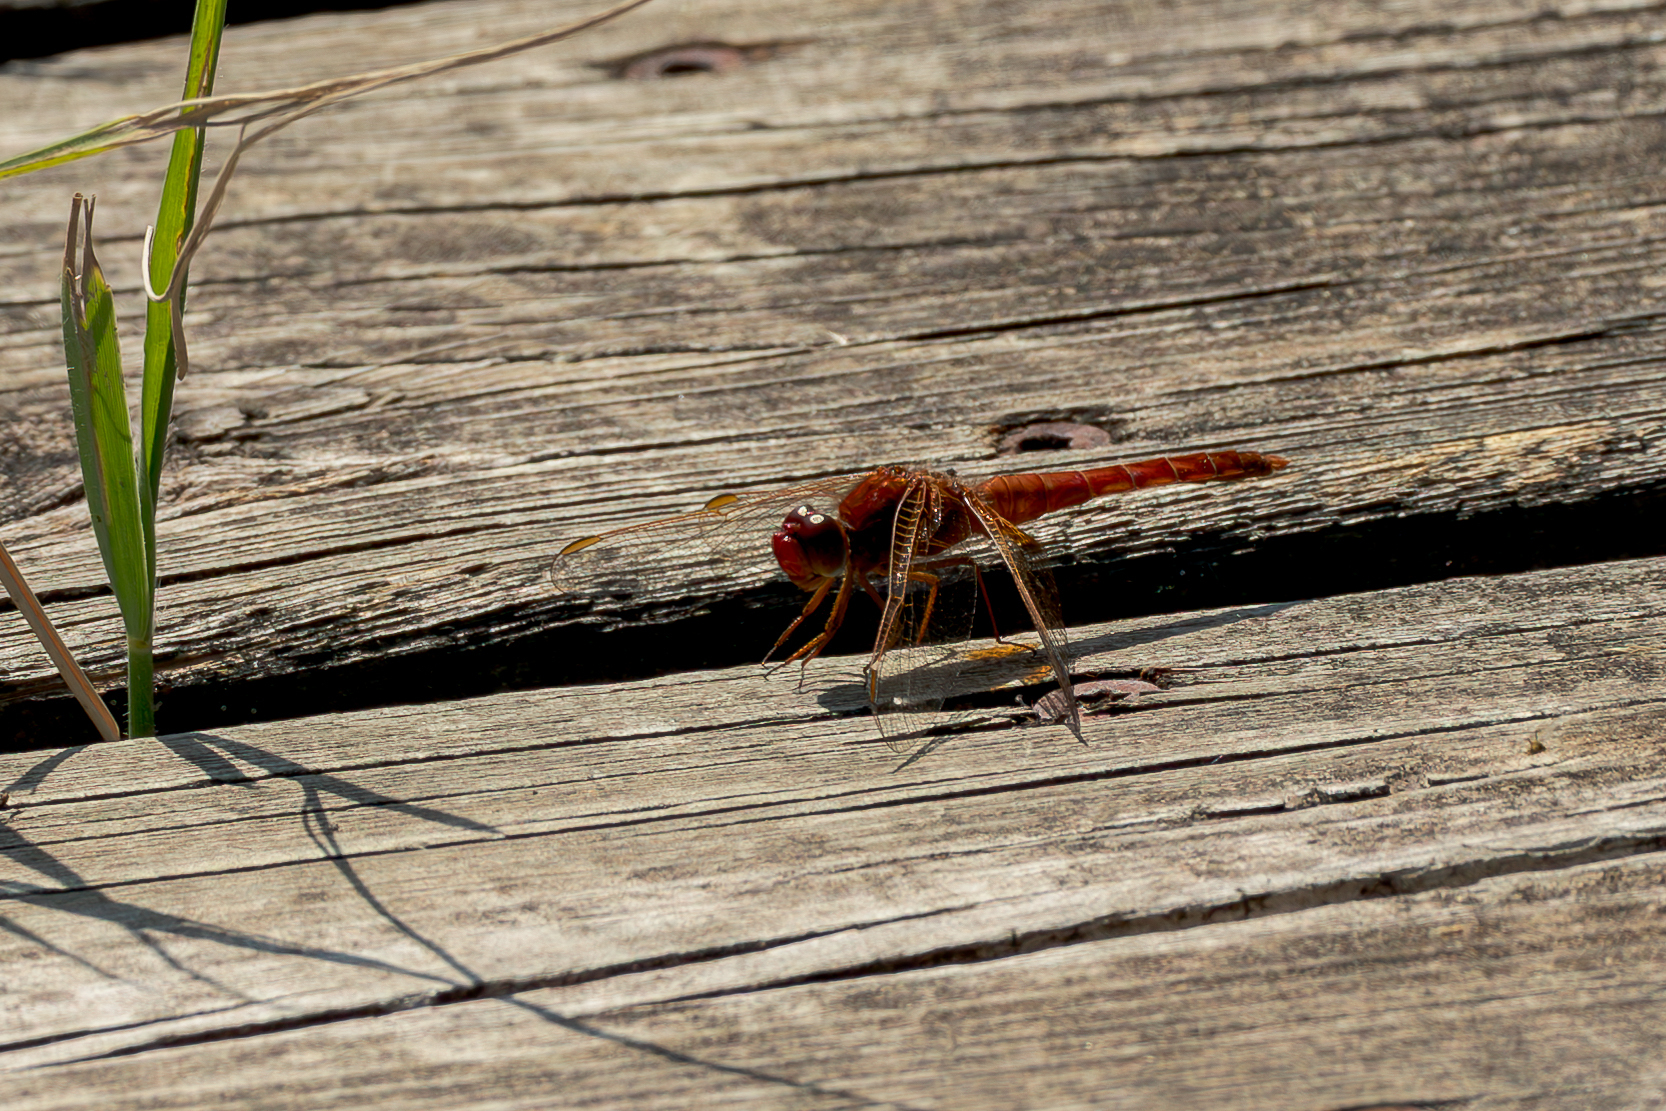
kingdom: Animalia
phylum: Arthropoda
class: Insecta
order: Odonata
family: Libellulidae
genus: Crocothemis
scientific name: Crocothemis erythraea
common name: Scarlet dragonfly
